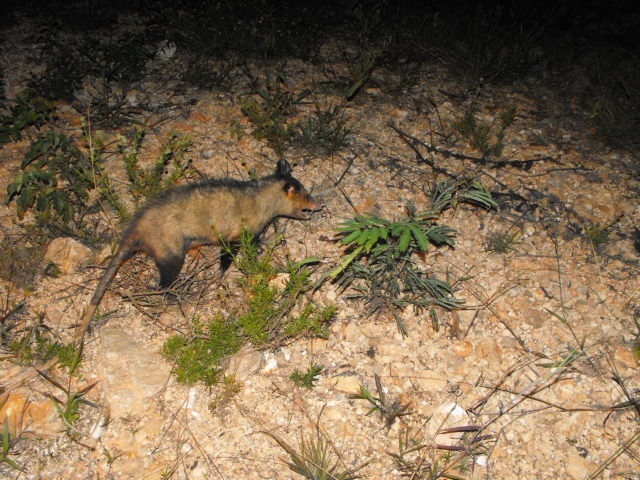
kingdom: Animalia
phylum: Chordata
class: Mammalia
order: Didelphimorphia
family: Didelphidae
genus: Didelphis
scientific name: Didelphis marsupialis
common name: Common opossum
